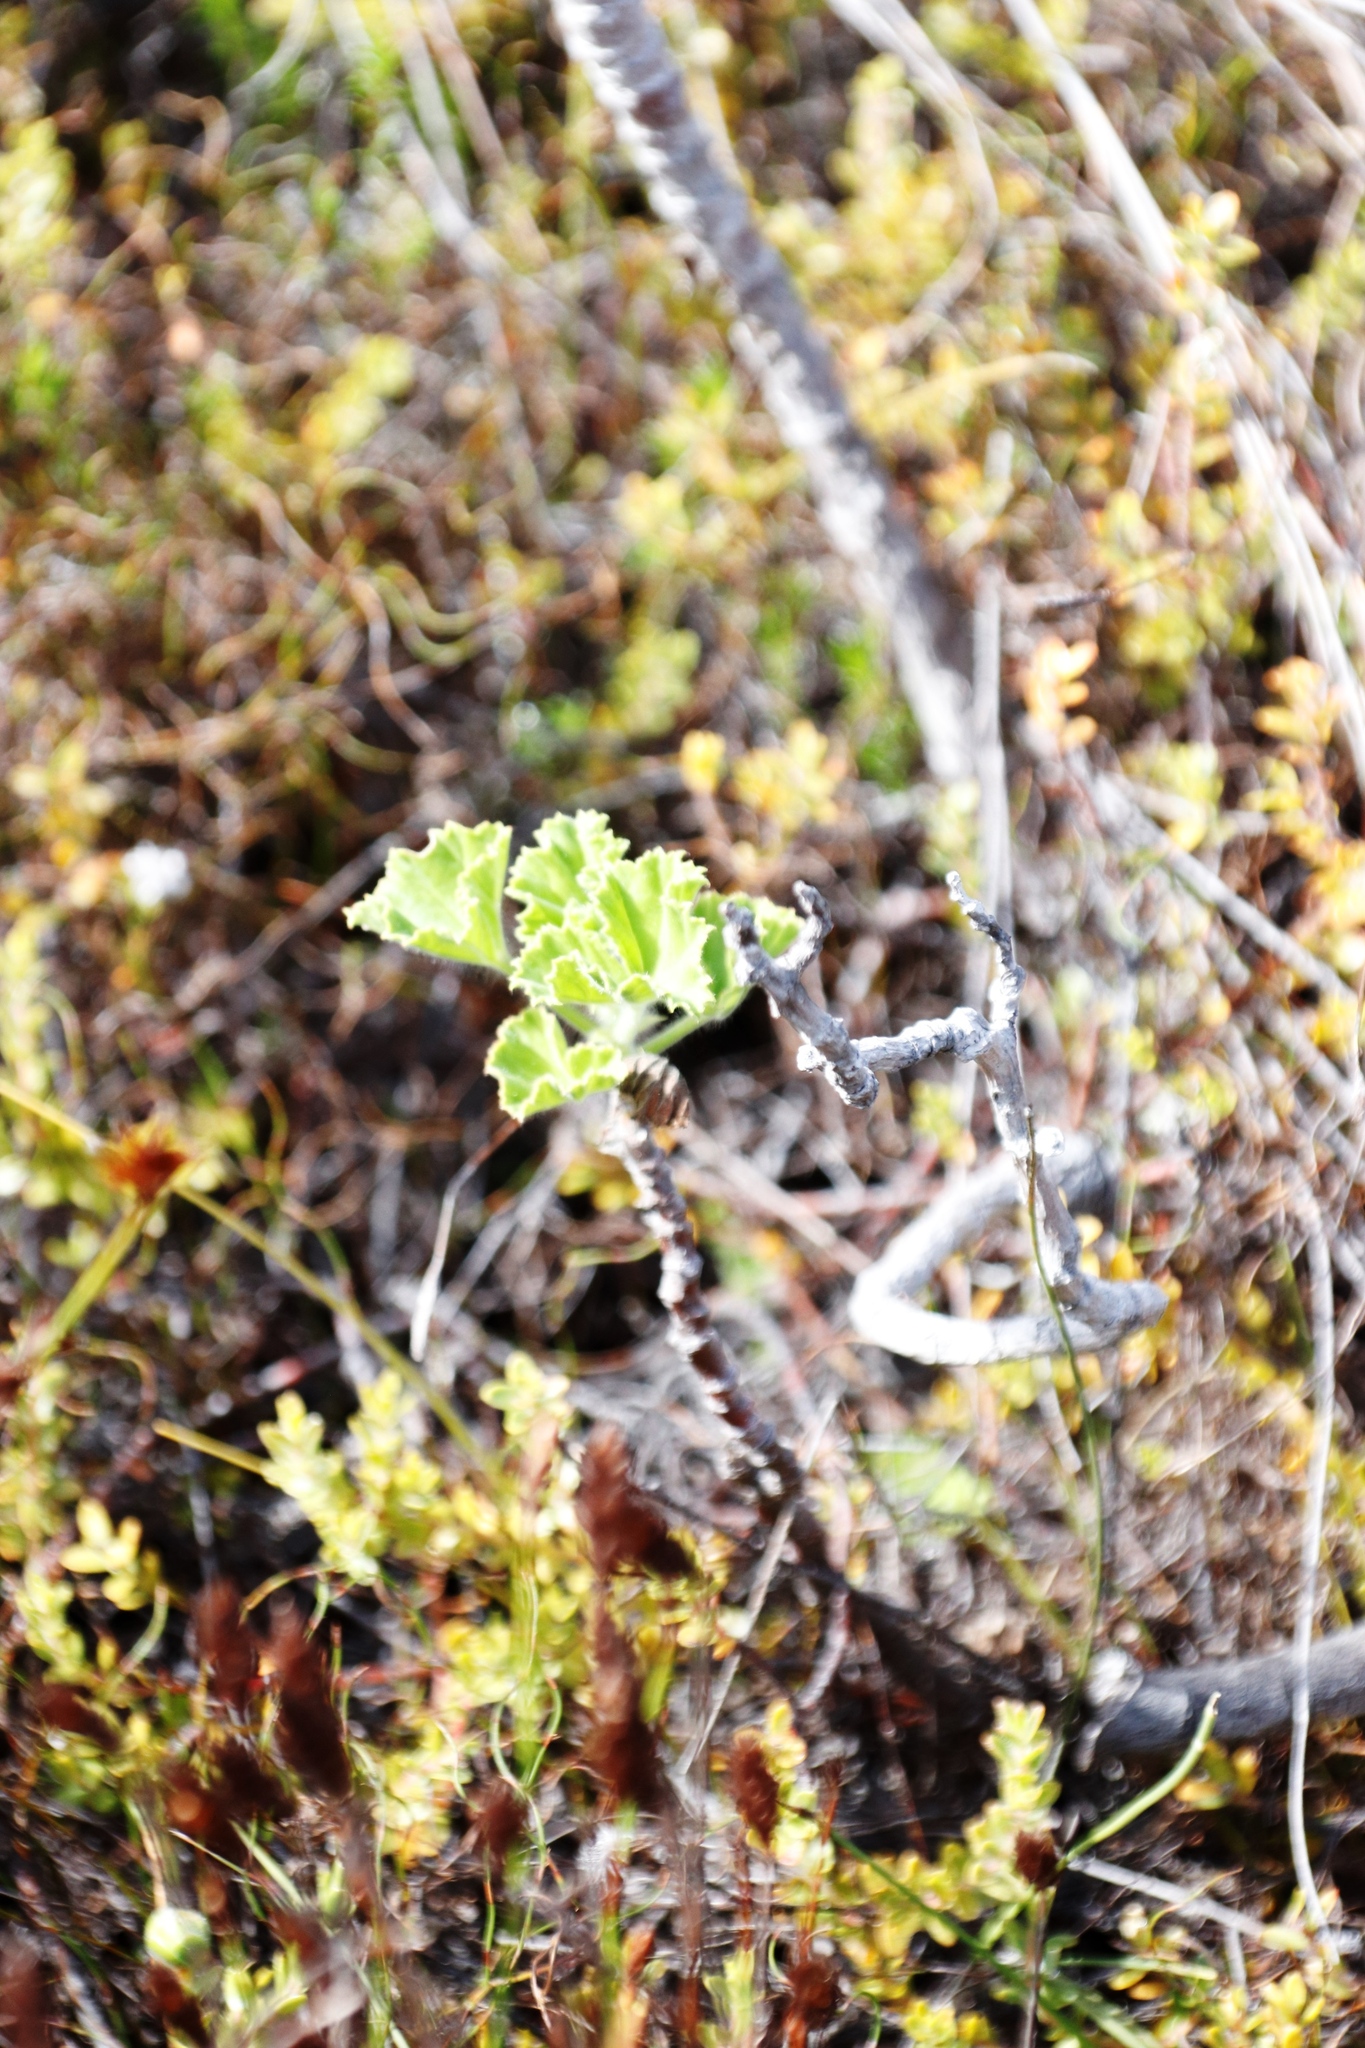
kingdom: Plantae
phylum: Tracheophyta
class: Magnoliopsida
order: Geraniales
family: Geraniaceae
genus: Pelargonium
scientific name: Pelargonium cucullatum
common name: Tree pelargonium
